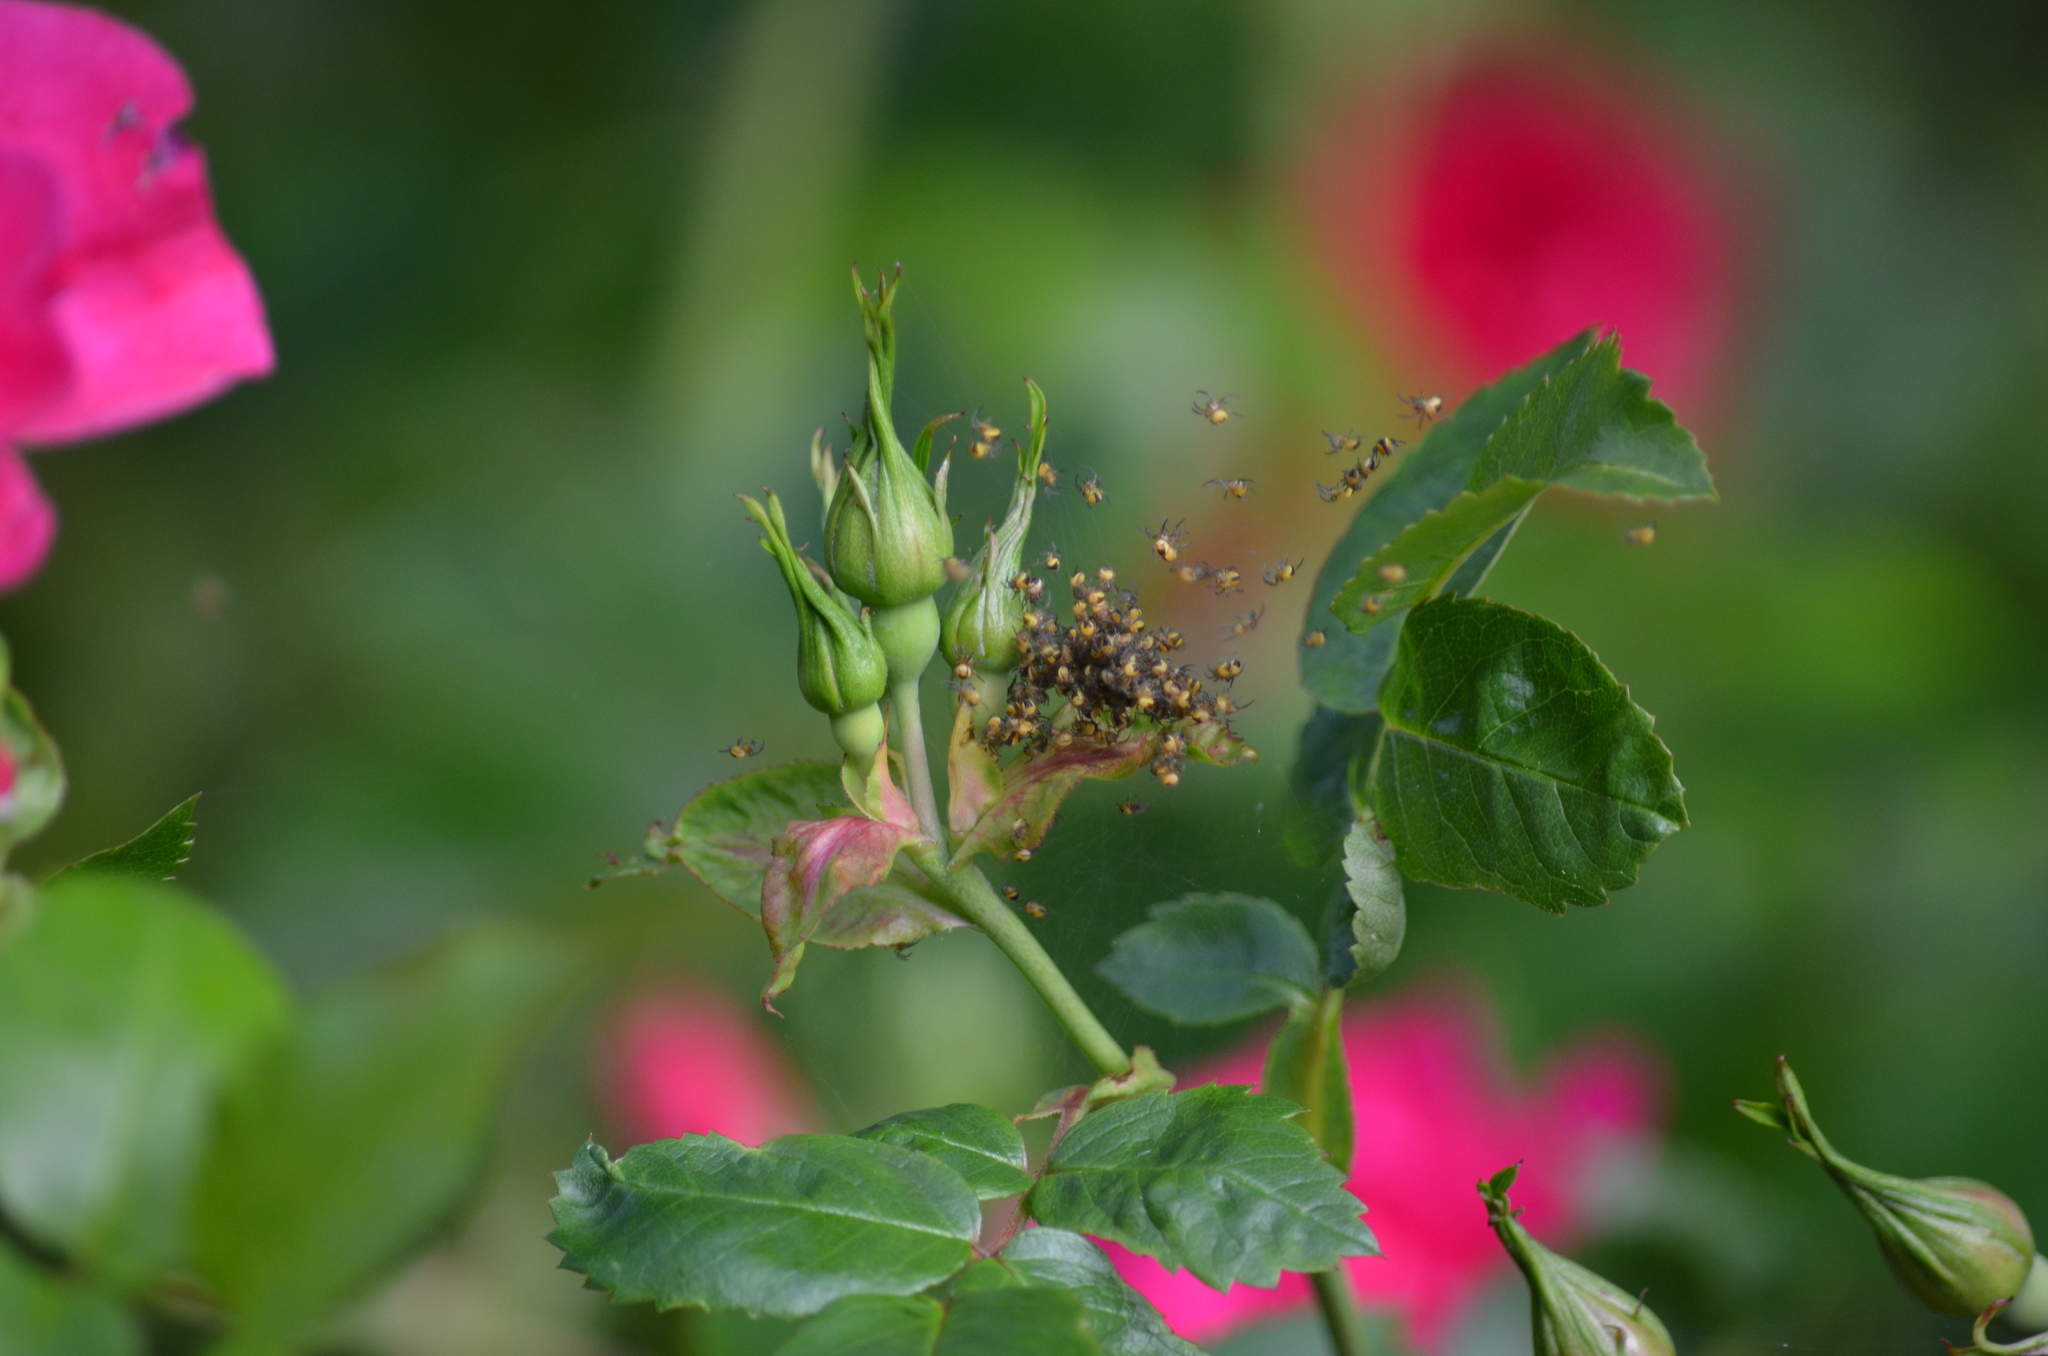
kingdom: Animalia
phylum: Arthropoda
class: Arachnida
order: Araneae
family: Araneidae
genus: Araneus
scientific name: Araneus diadematus
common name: Cross orbweaver
